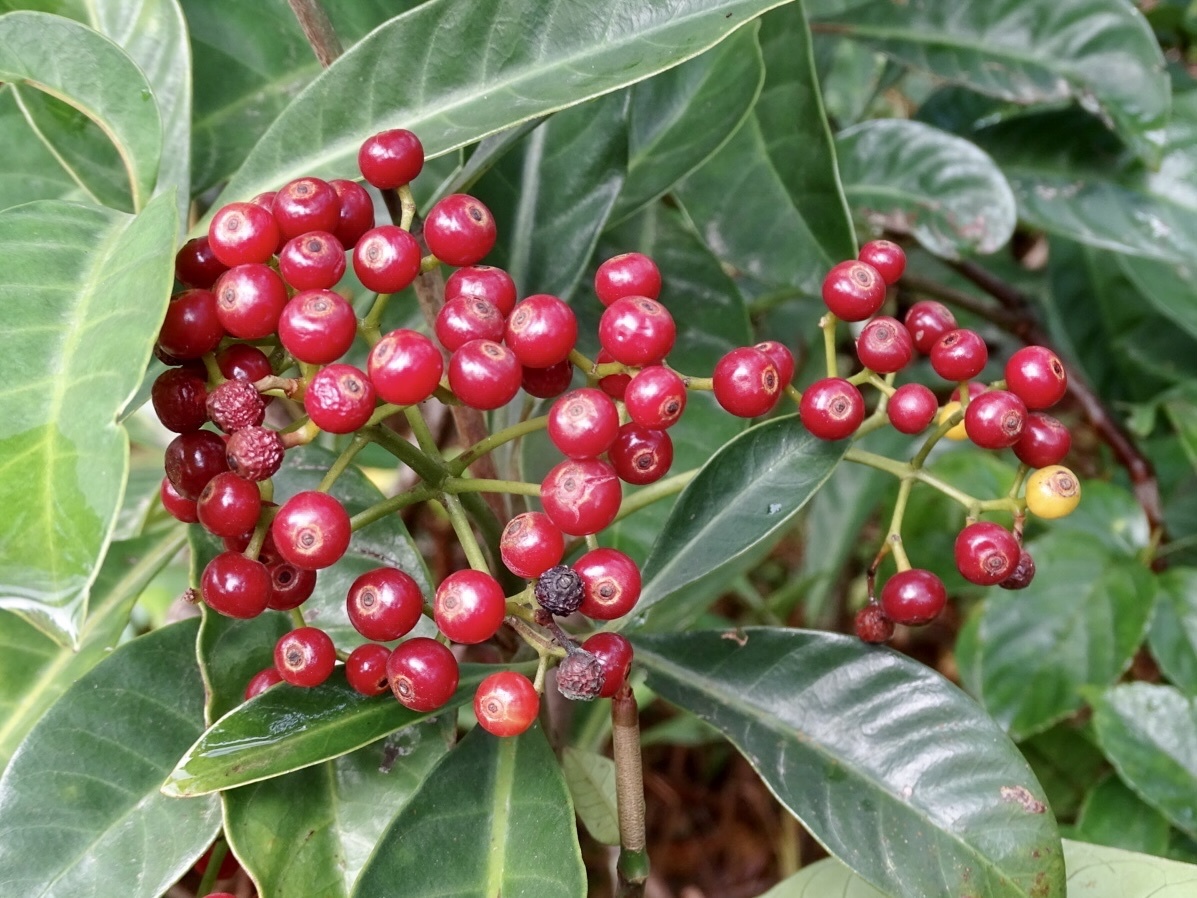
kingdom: Plantae
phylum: Tracheophyta
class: Magnoliopsida
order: Gentianales
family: Rubiaceae
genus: Psychotria
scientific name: Psychotria asiatica
